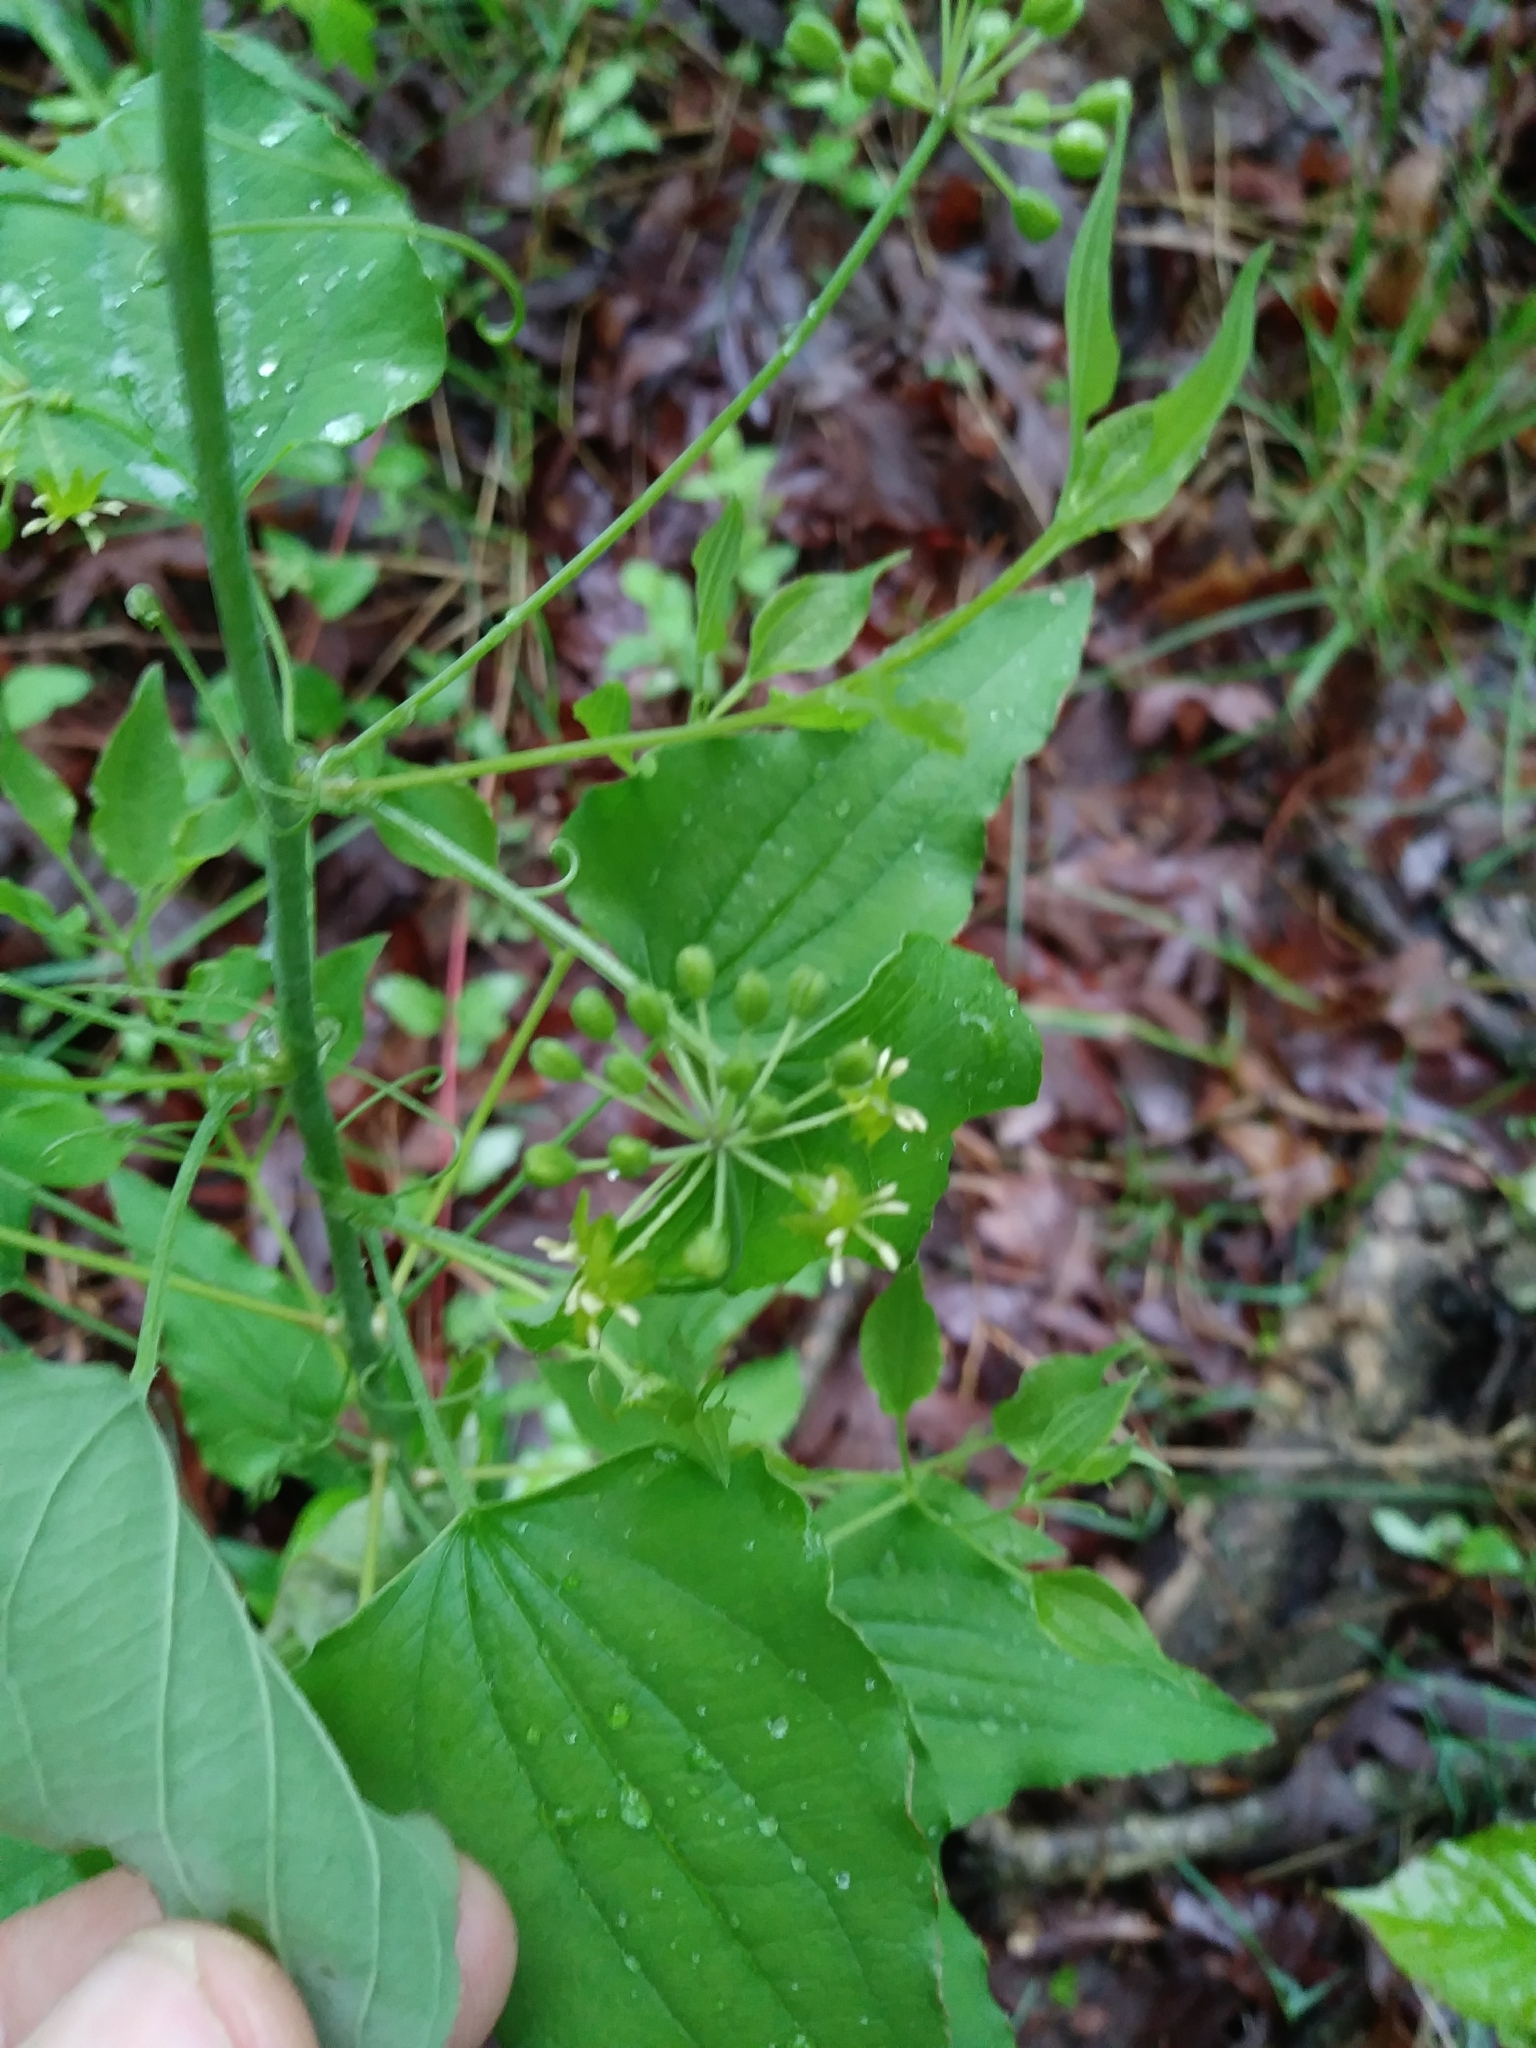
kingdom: Plantae
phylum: Tracheophyta
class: Liliopsida
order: Liliales
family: Smilacaceae
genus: Smilax
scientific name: Smilax herbacea
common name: Jacob's-ladder
